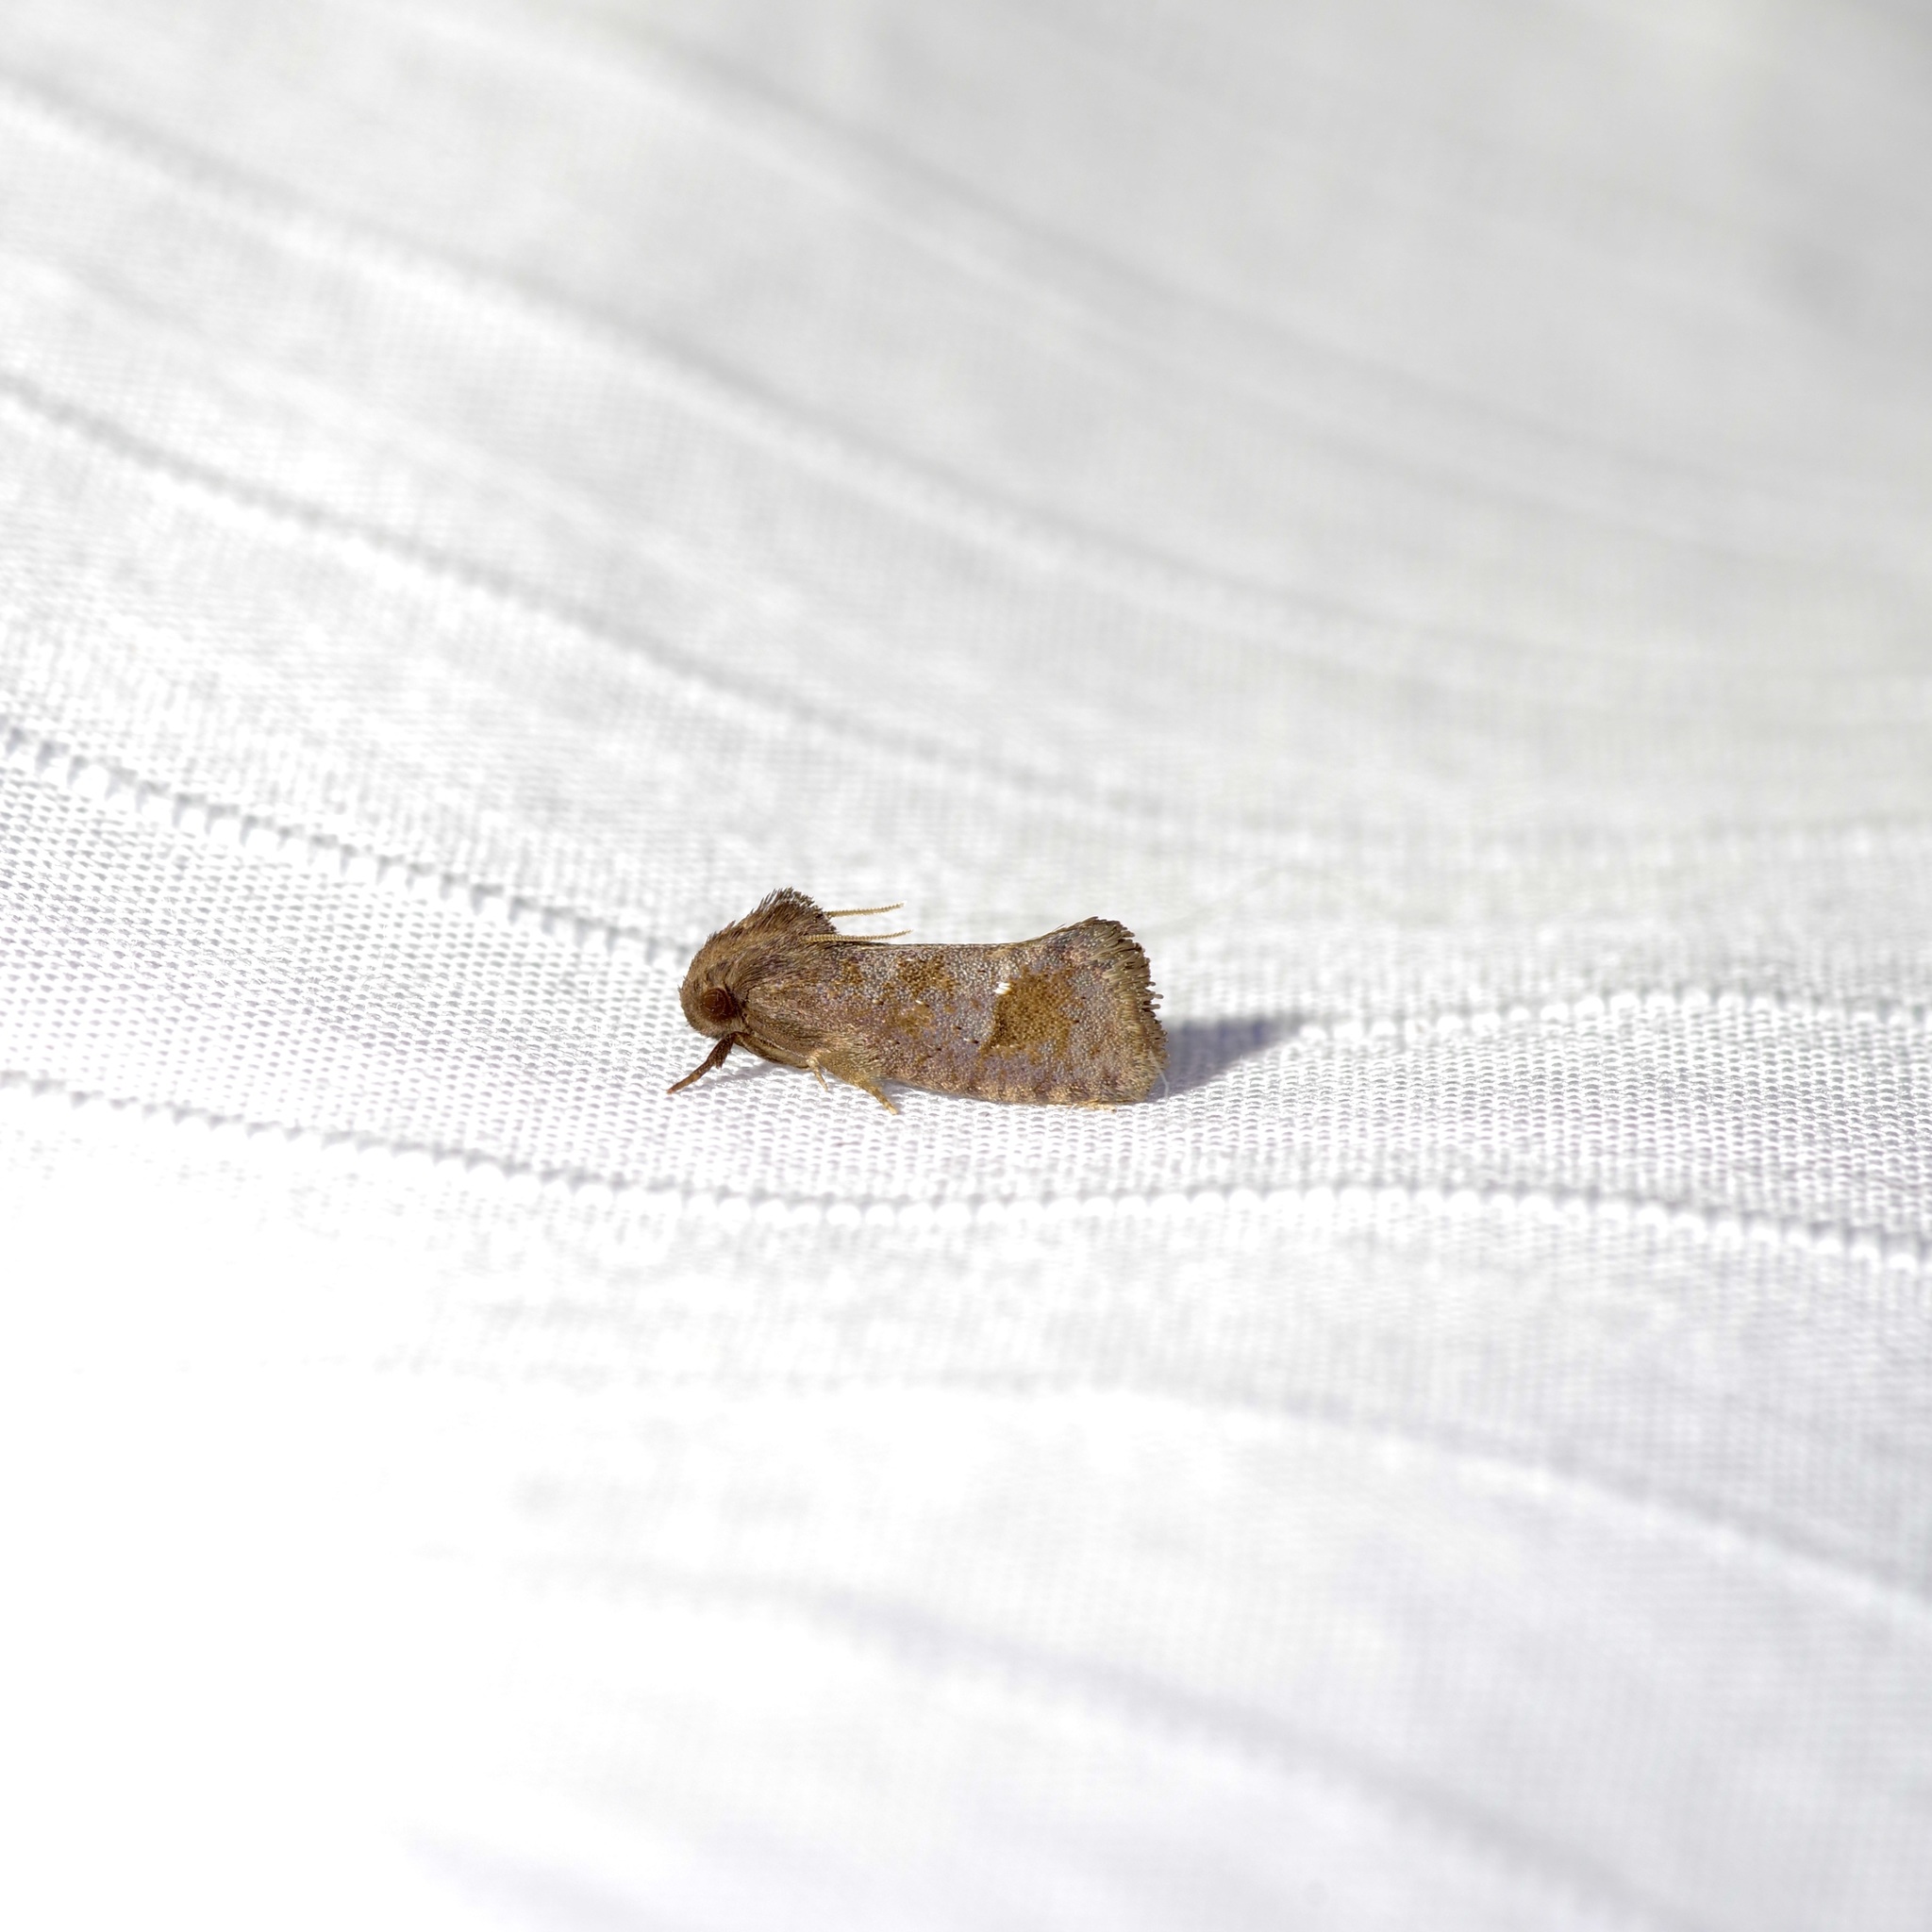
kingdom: Animalia
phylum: Arthropoda
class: Insecta
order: Lepidoptera
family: Tineidae
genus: Acrolophus
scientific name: Acrolophus texanella
